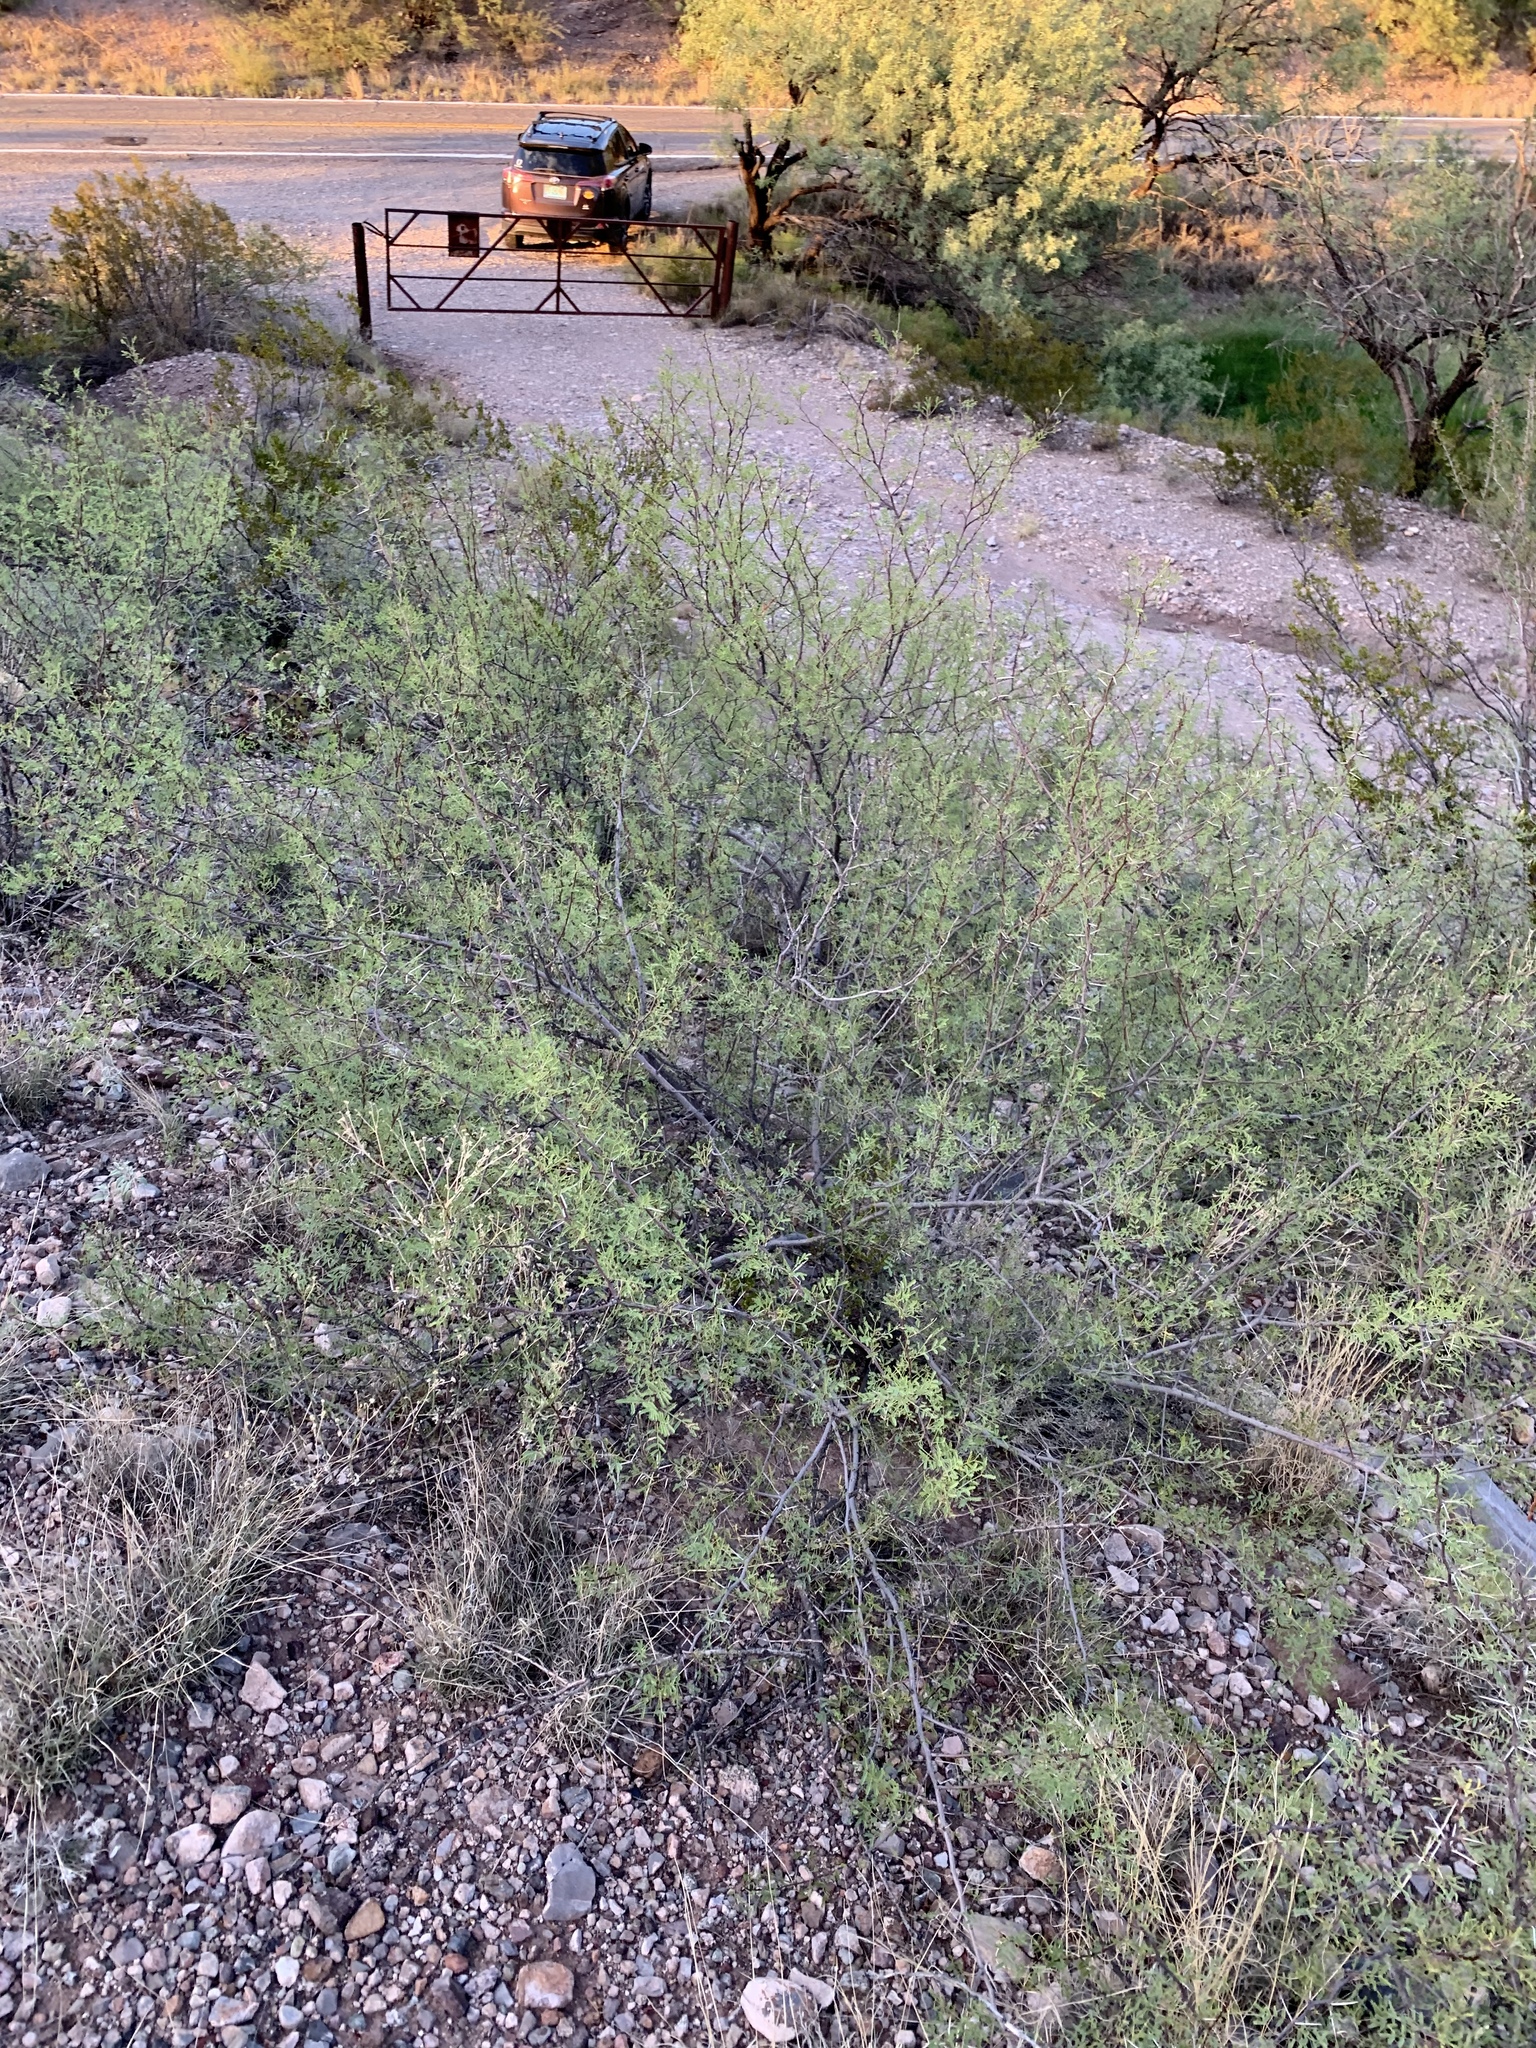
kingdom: Plantae
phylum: Tracheophyta
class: Magnoliopsida
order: Fabales
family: Fabaceae
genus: Prosopis
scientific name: Prosopis velutina
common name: Velvet mesquite
